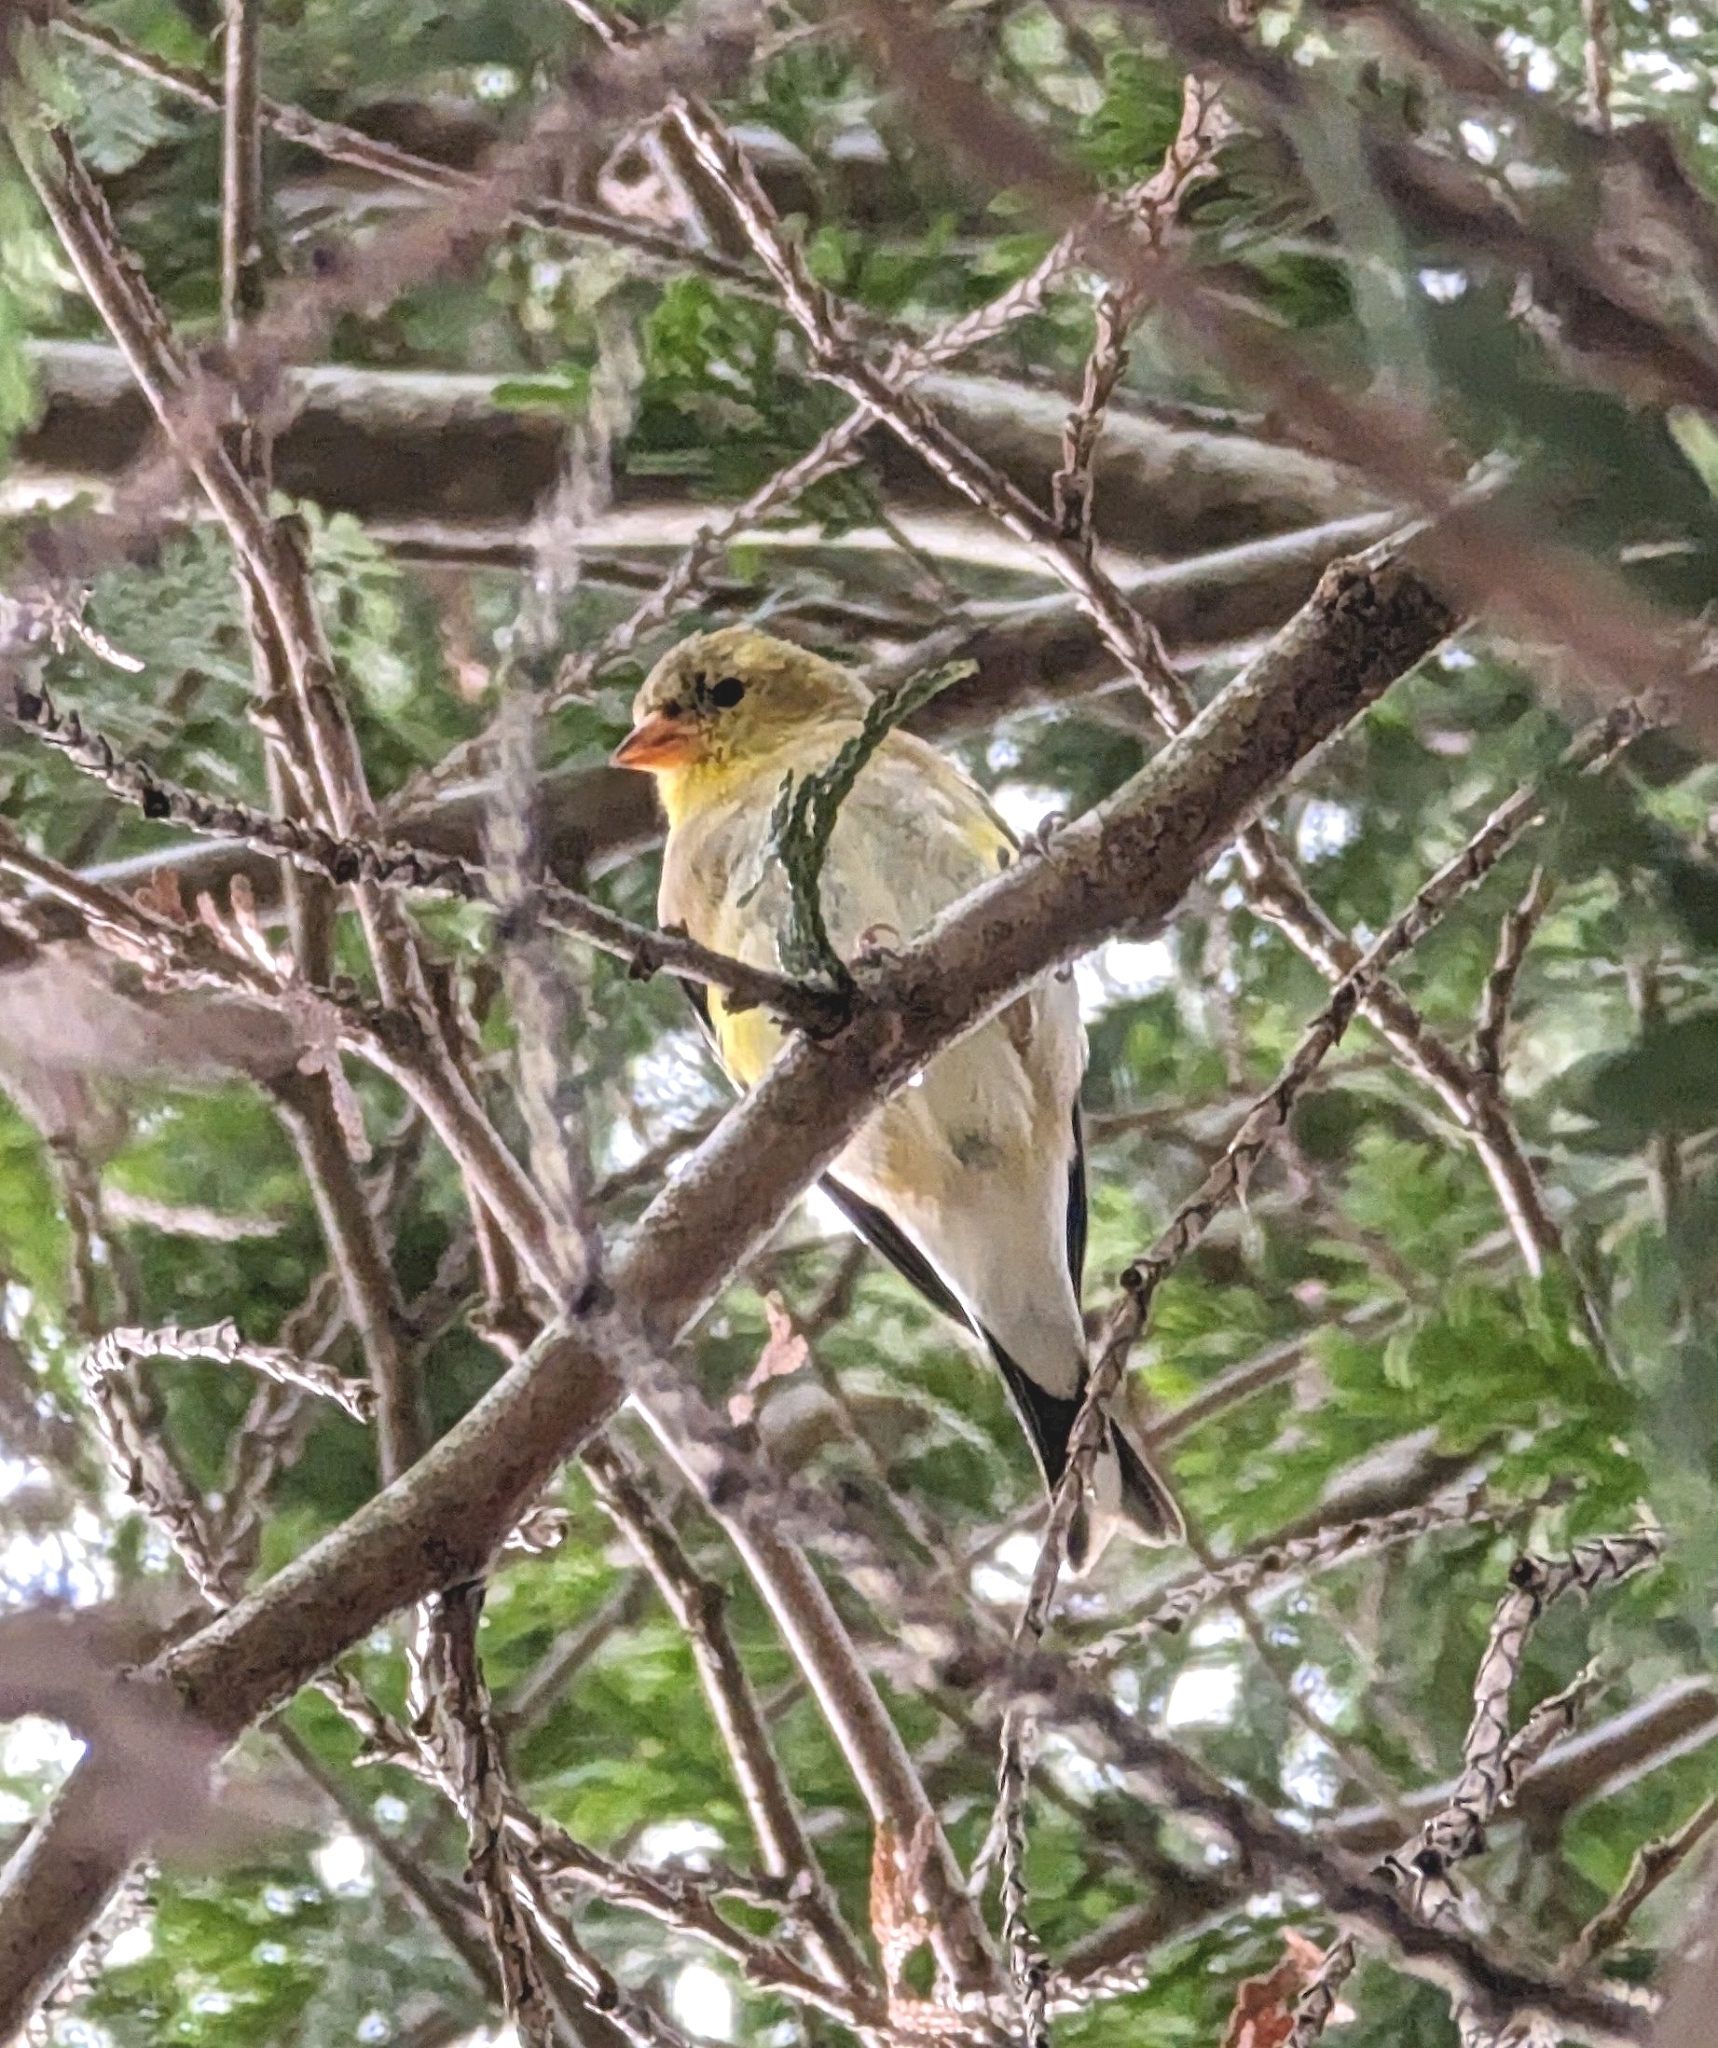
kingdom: Animalia
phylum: Chordata
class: Aves
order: Passeriformes
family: Fringillidae
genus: Spinus
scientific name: Spinus tristis
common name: American goldfinch
